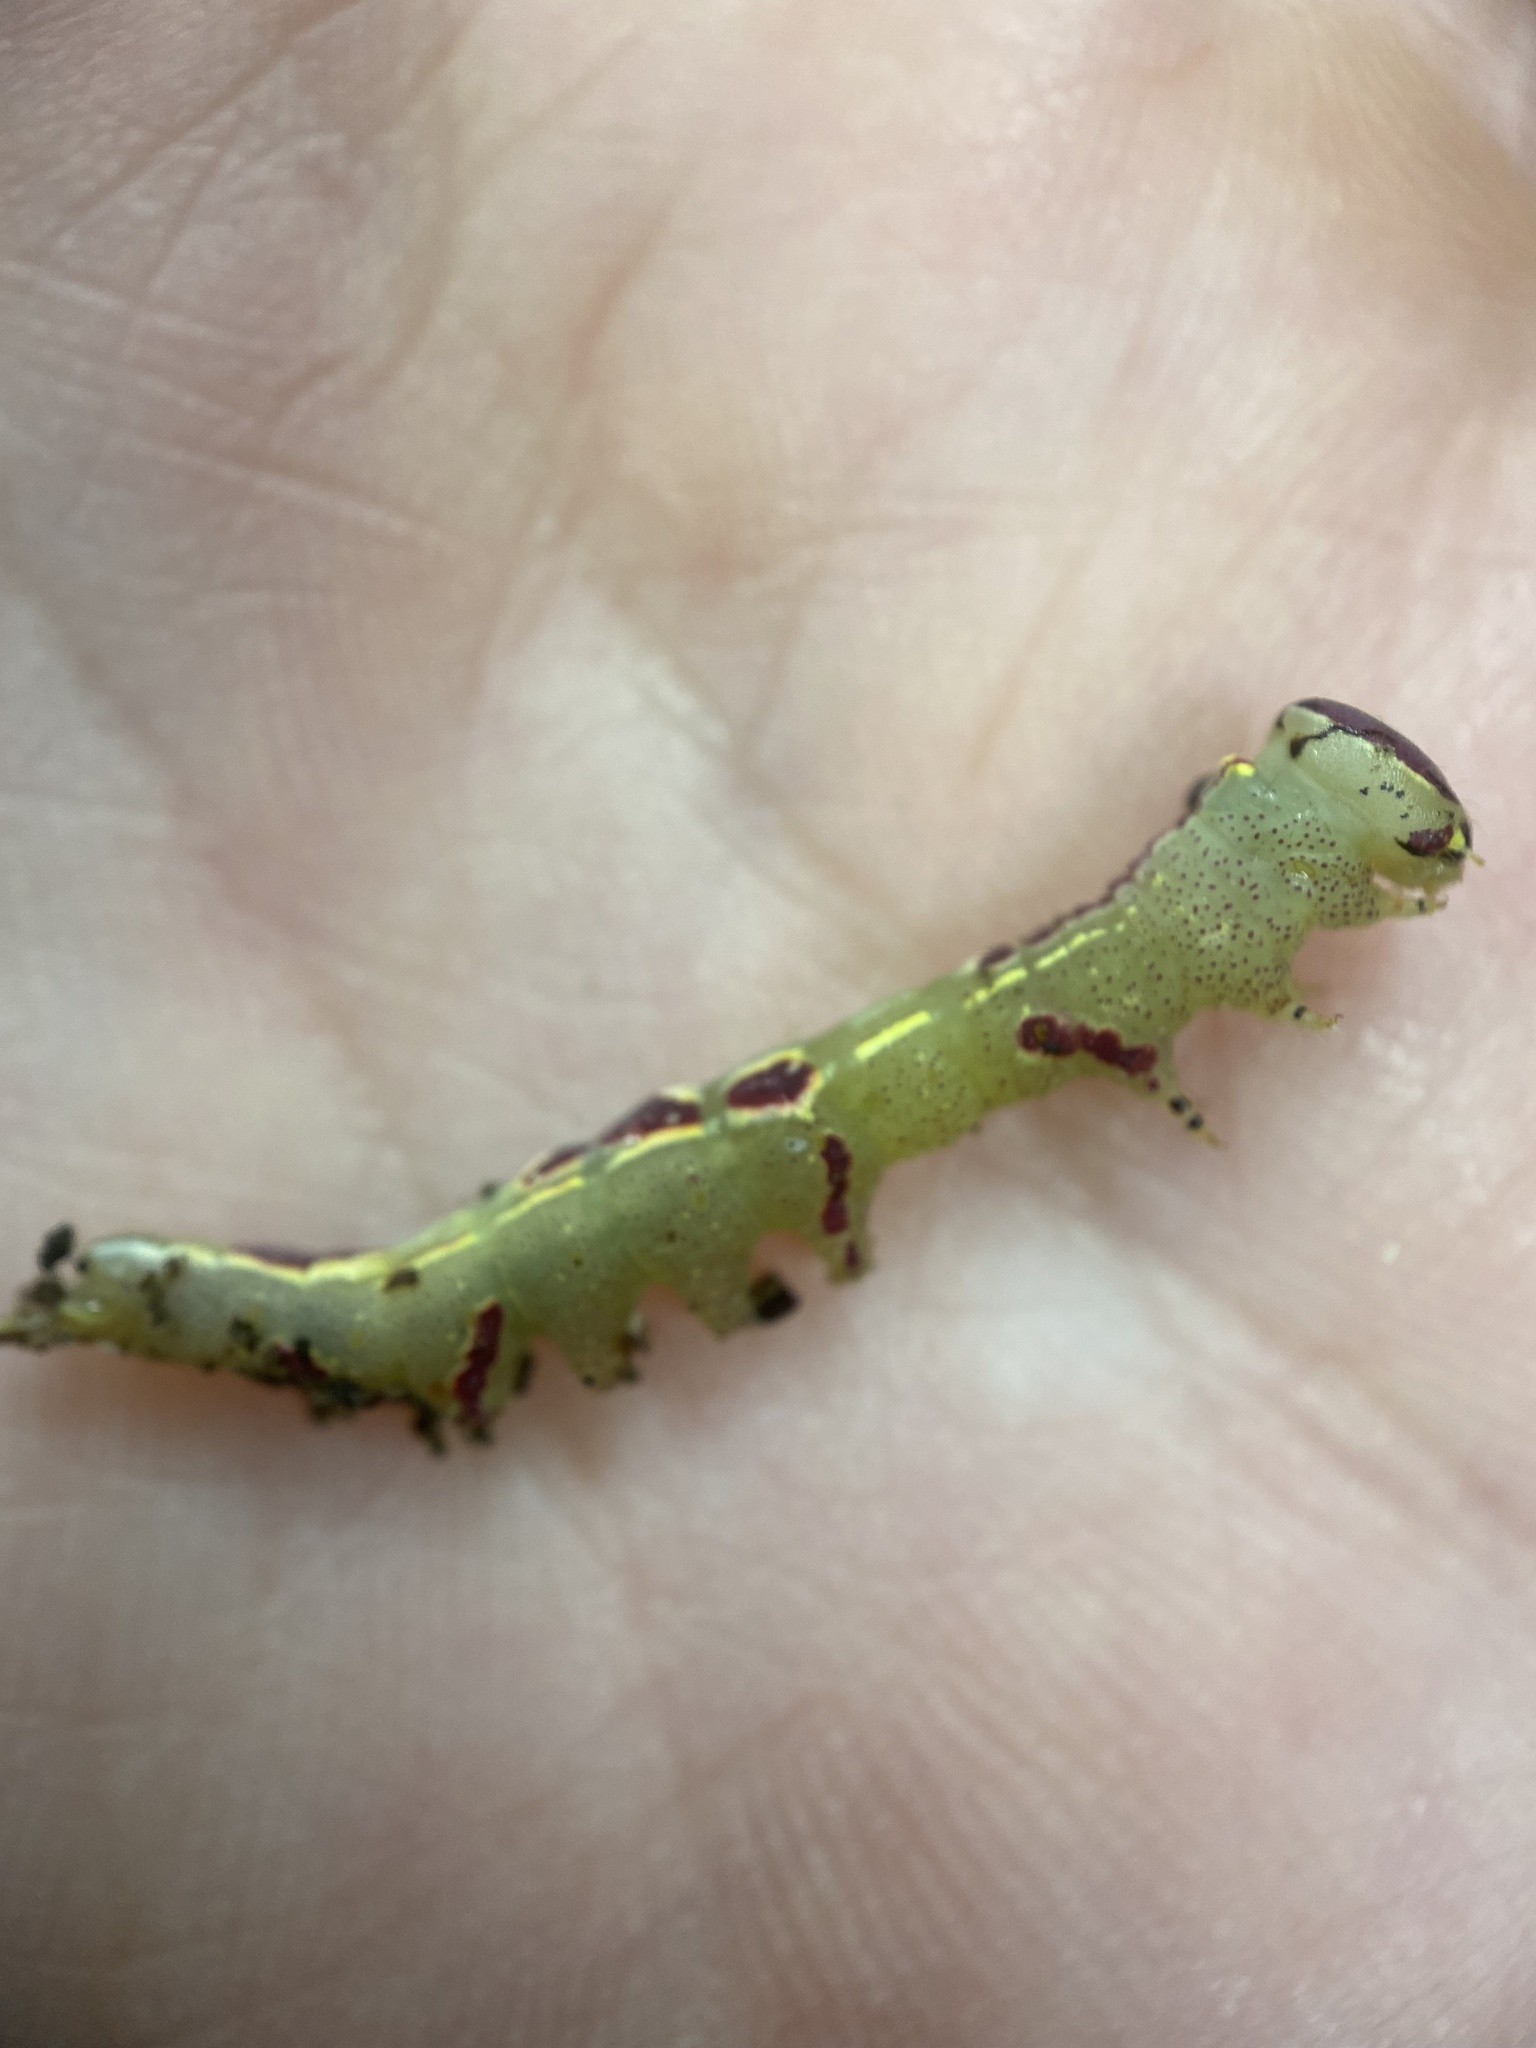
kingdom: Animalia
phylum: Arthropoda
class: Insecta
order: Lepidoptera
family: Notodontidae
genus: Disphragis
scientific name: Disphragis Cecrita guttivitta
